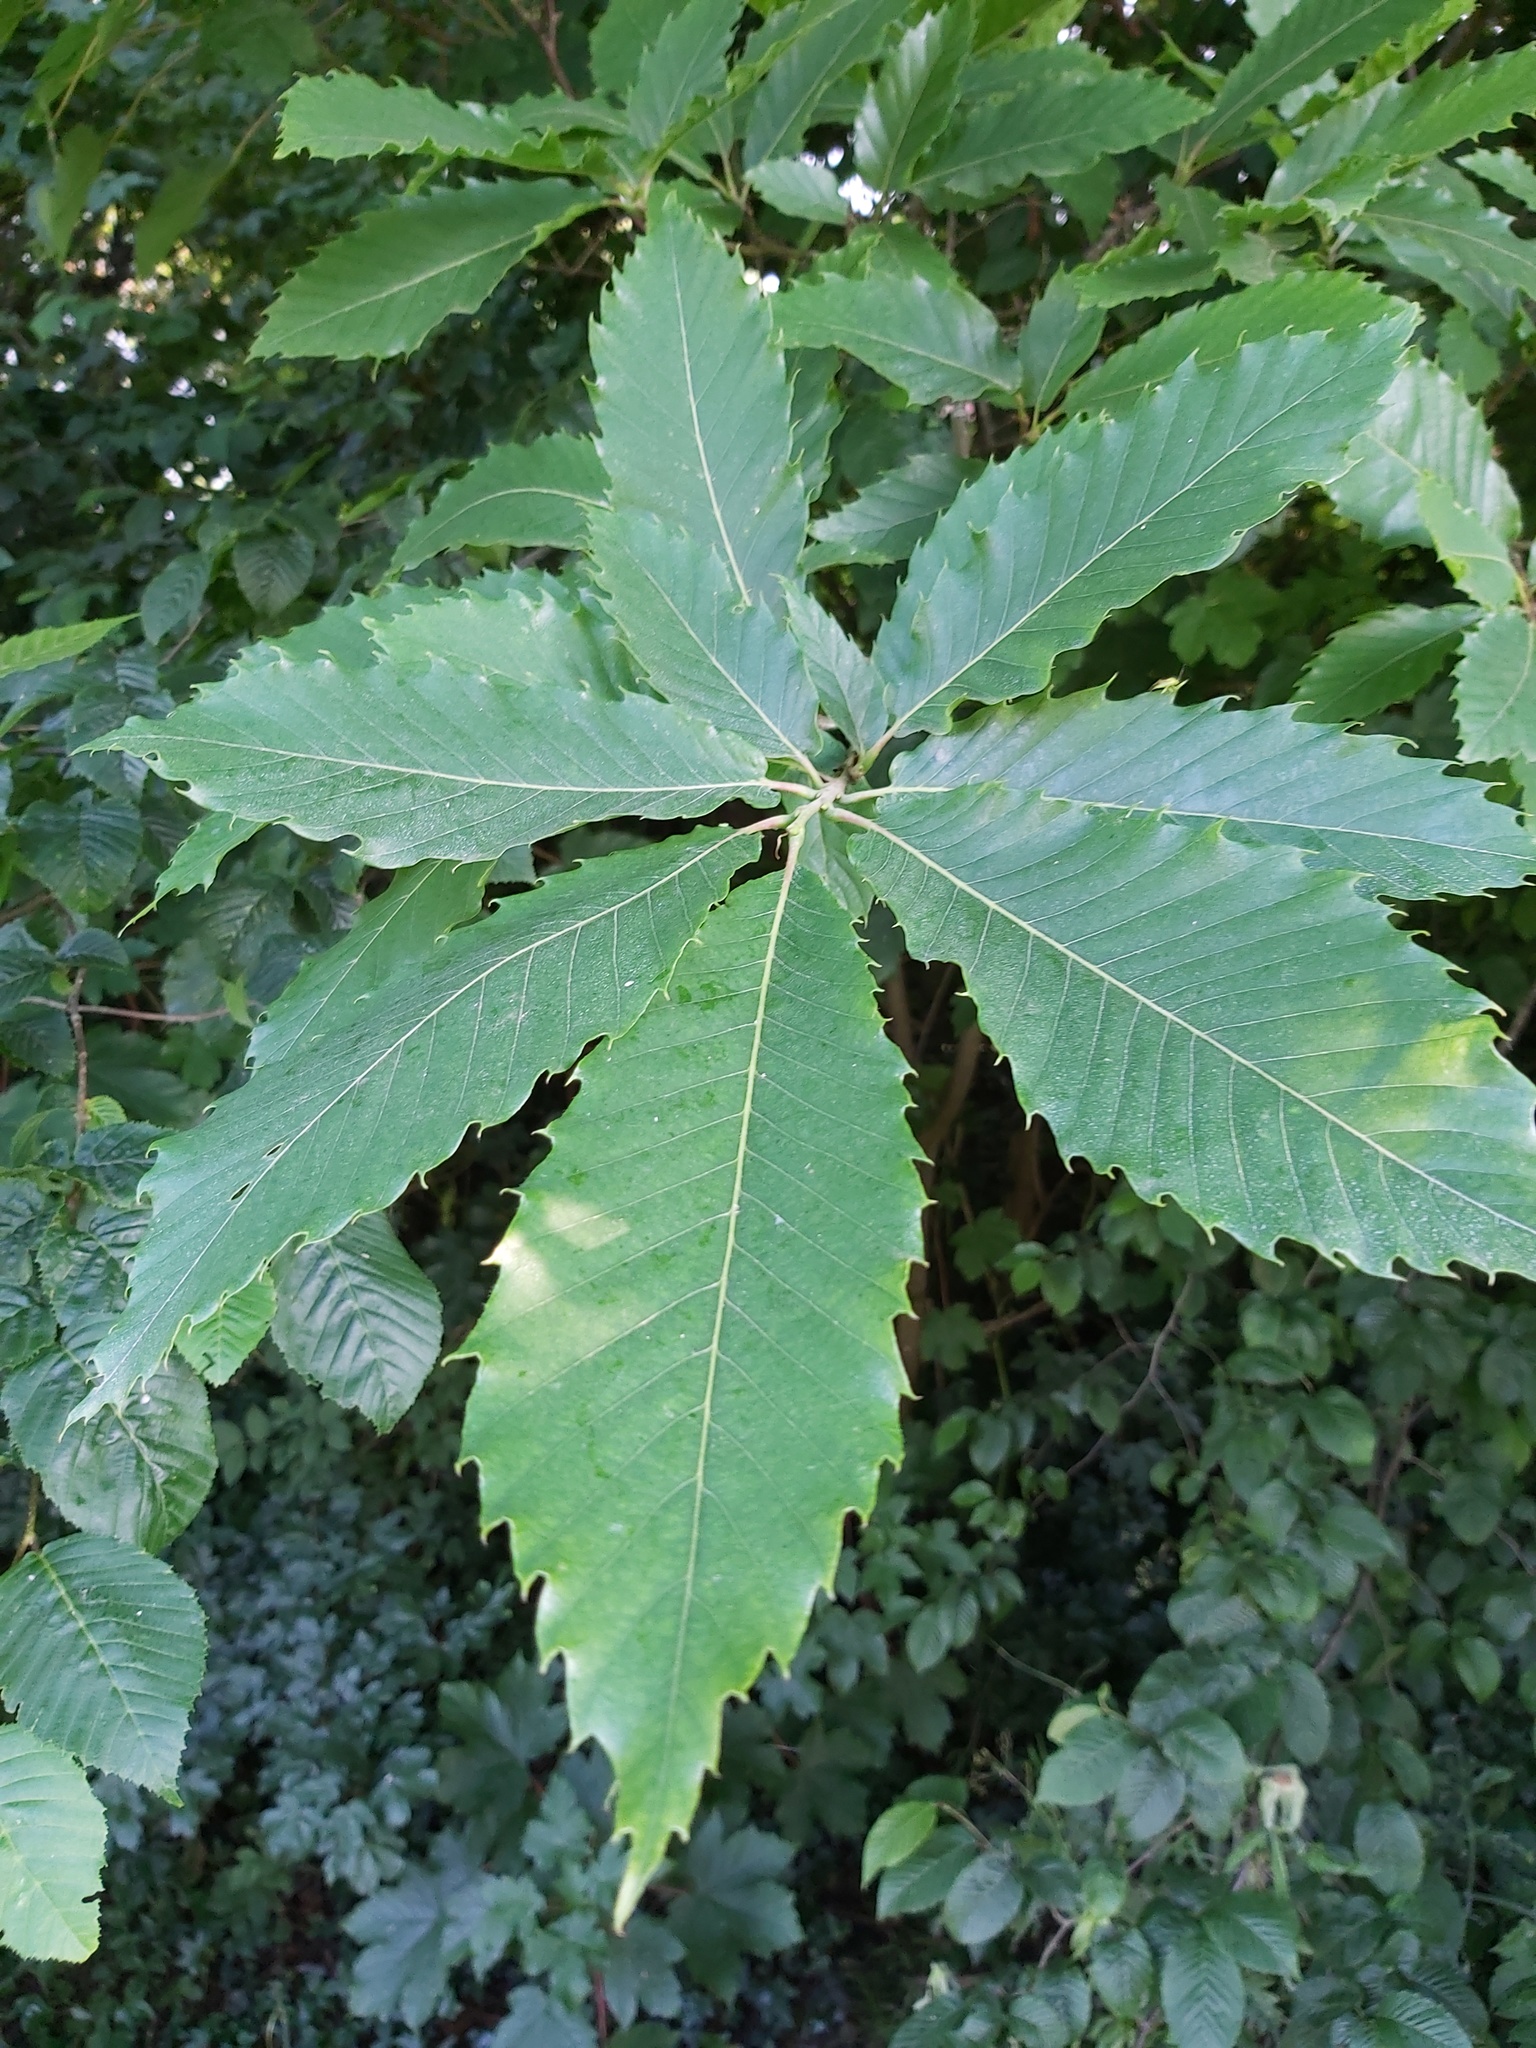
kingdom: Plantae
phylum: Tracheophyta
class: Magnoliopsida
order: Fagales
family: Fagaceae
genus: Castanea
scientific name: Castanea sativa
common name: Sweet chestnut
